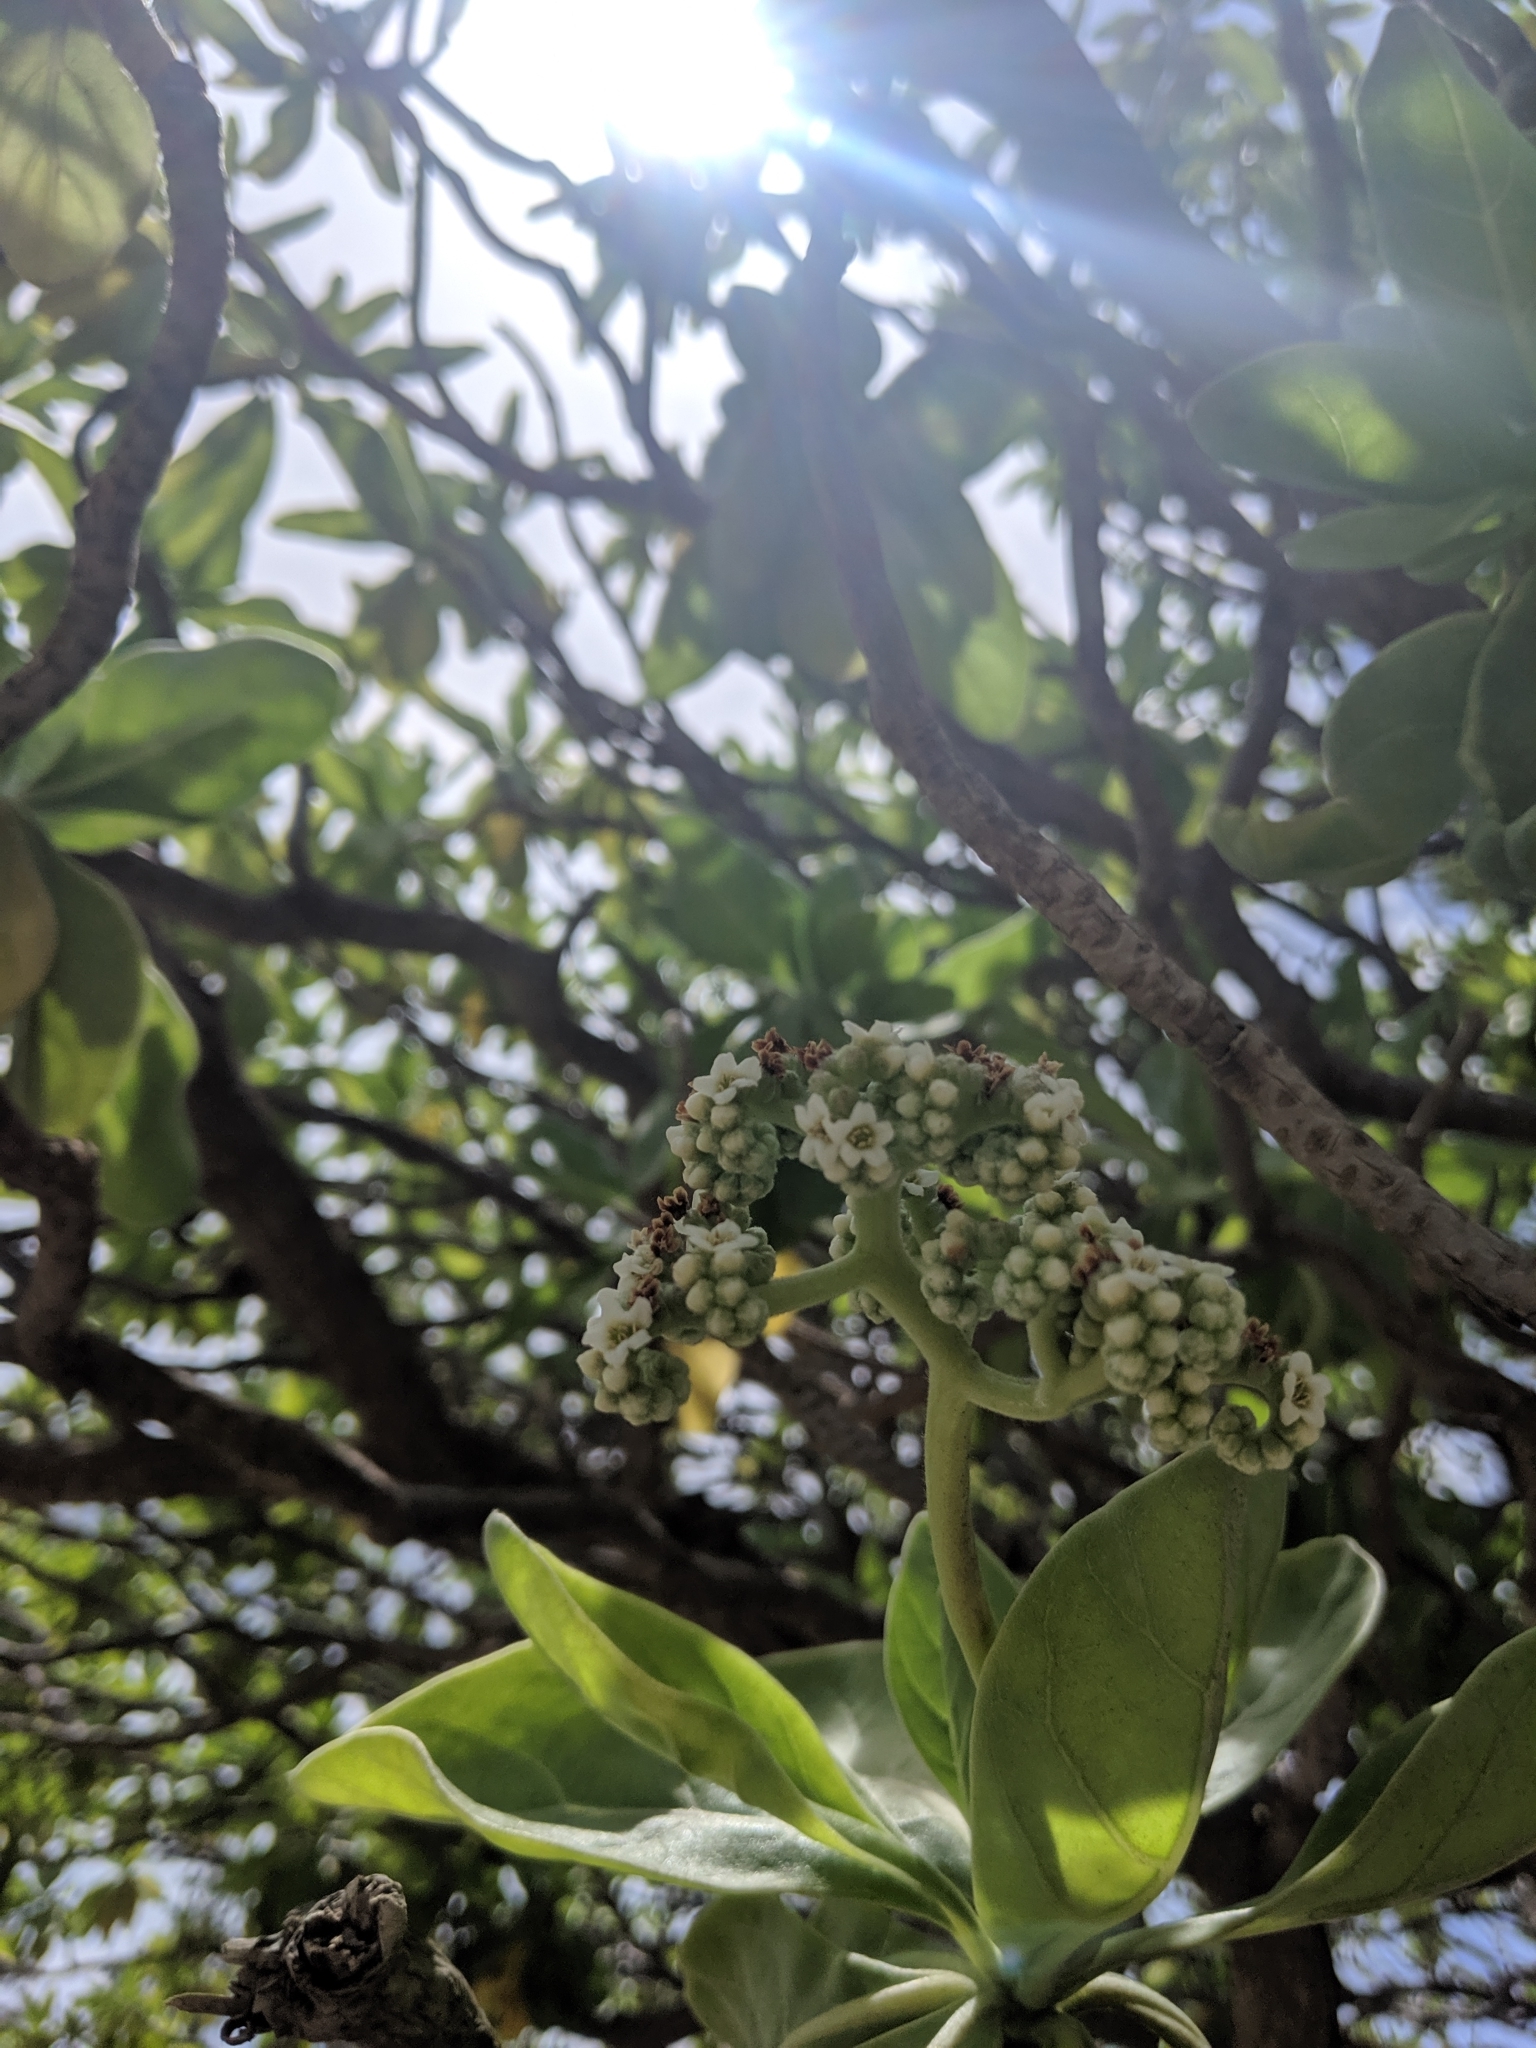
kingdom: Plantae
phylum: Tracheophyta
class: Magnoliopsida
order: Boraginales
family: Heliotropiaceae
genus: Heliotropium
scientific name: Heliotropium velutinum
